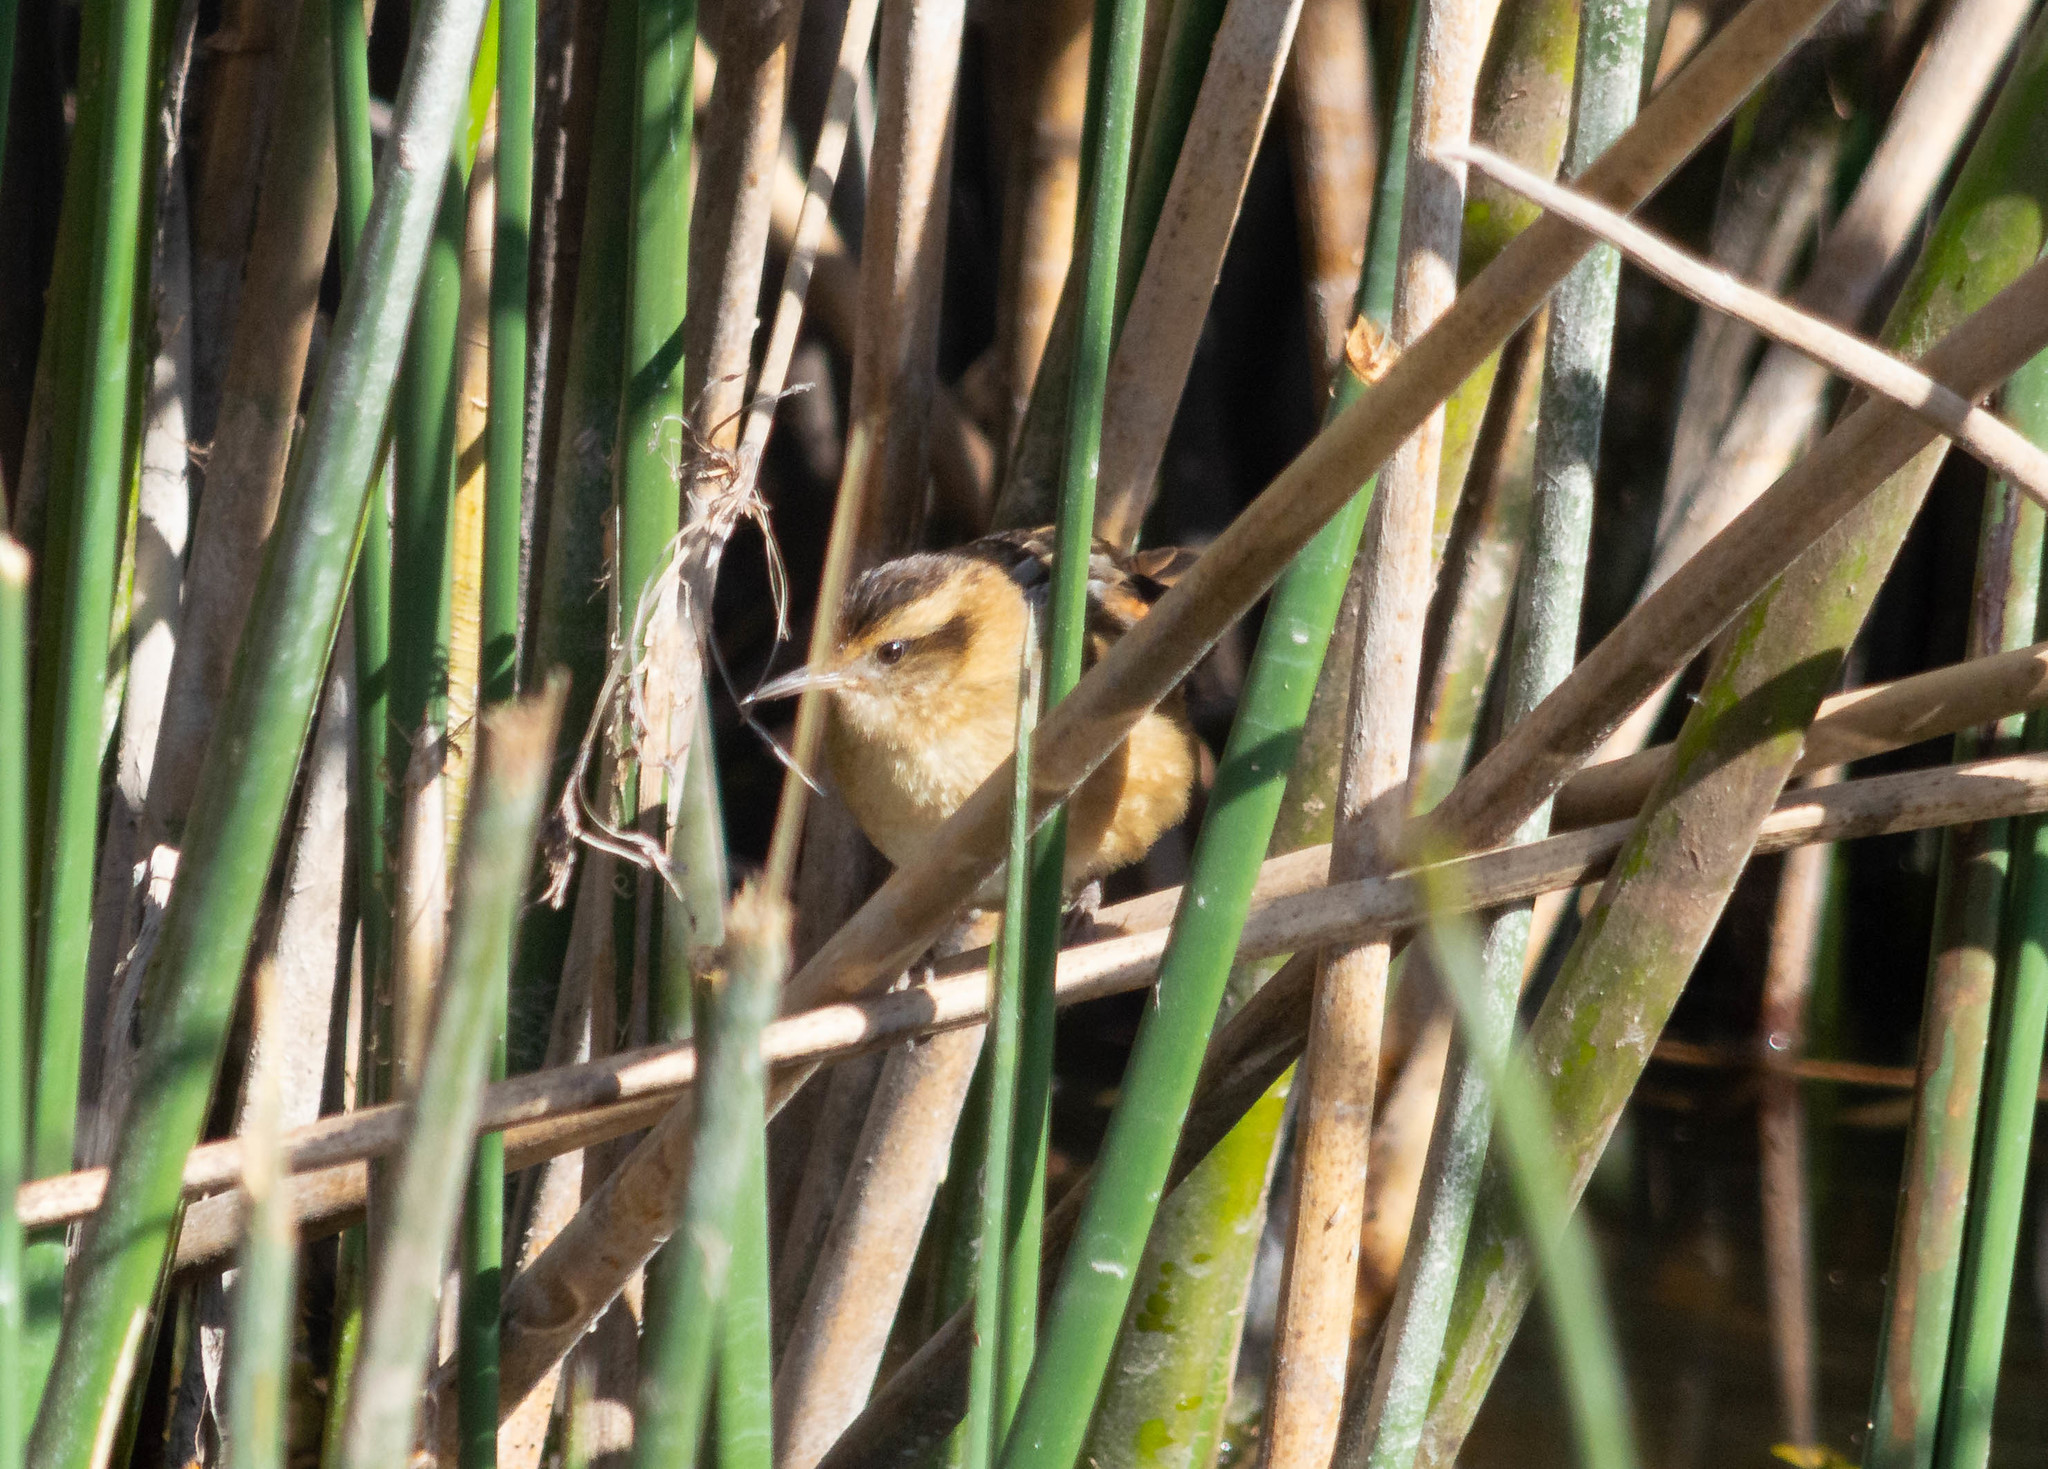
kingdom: Animalia
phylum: Chordata
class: Aves
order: Passeriformes
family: Furnariidae
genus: Phleocryptes
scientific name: Phleocryptes melanops
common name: Wren-like rushbird
